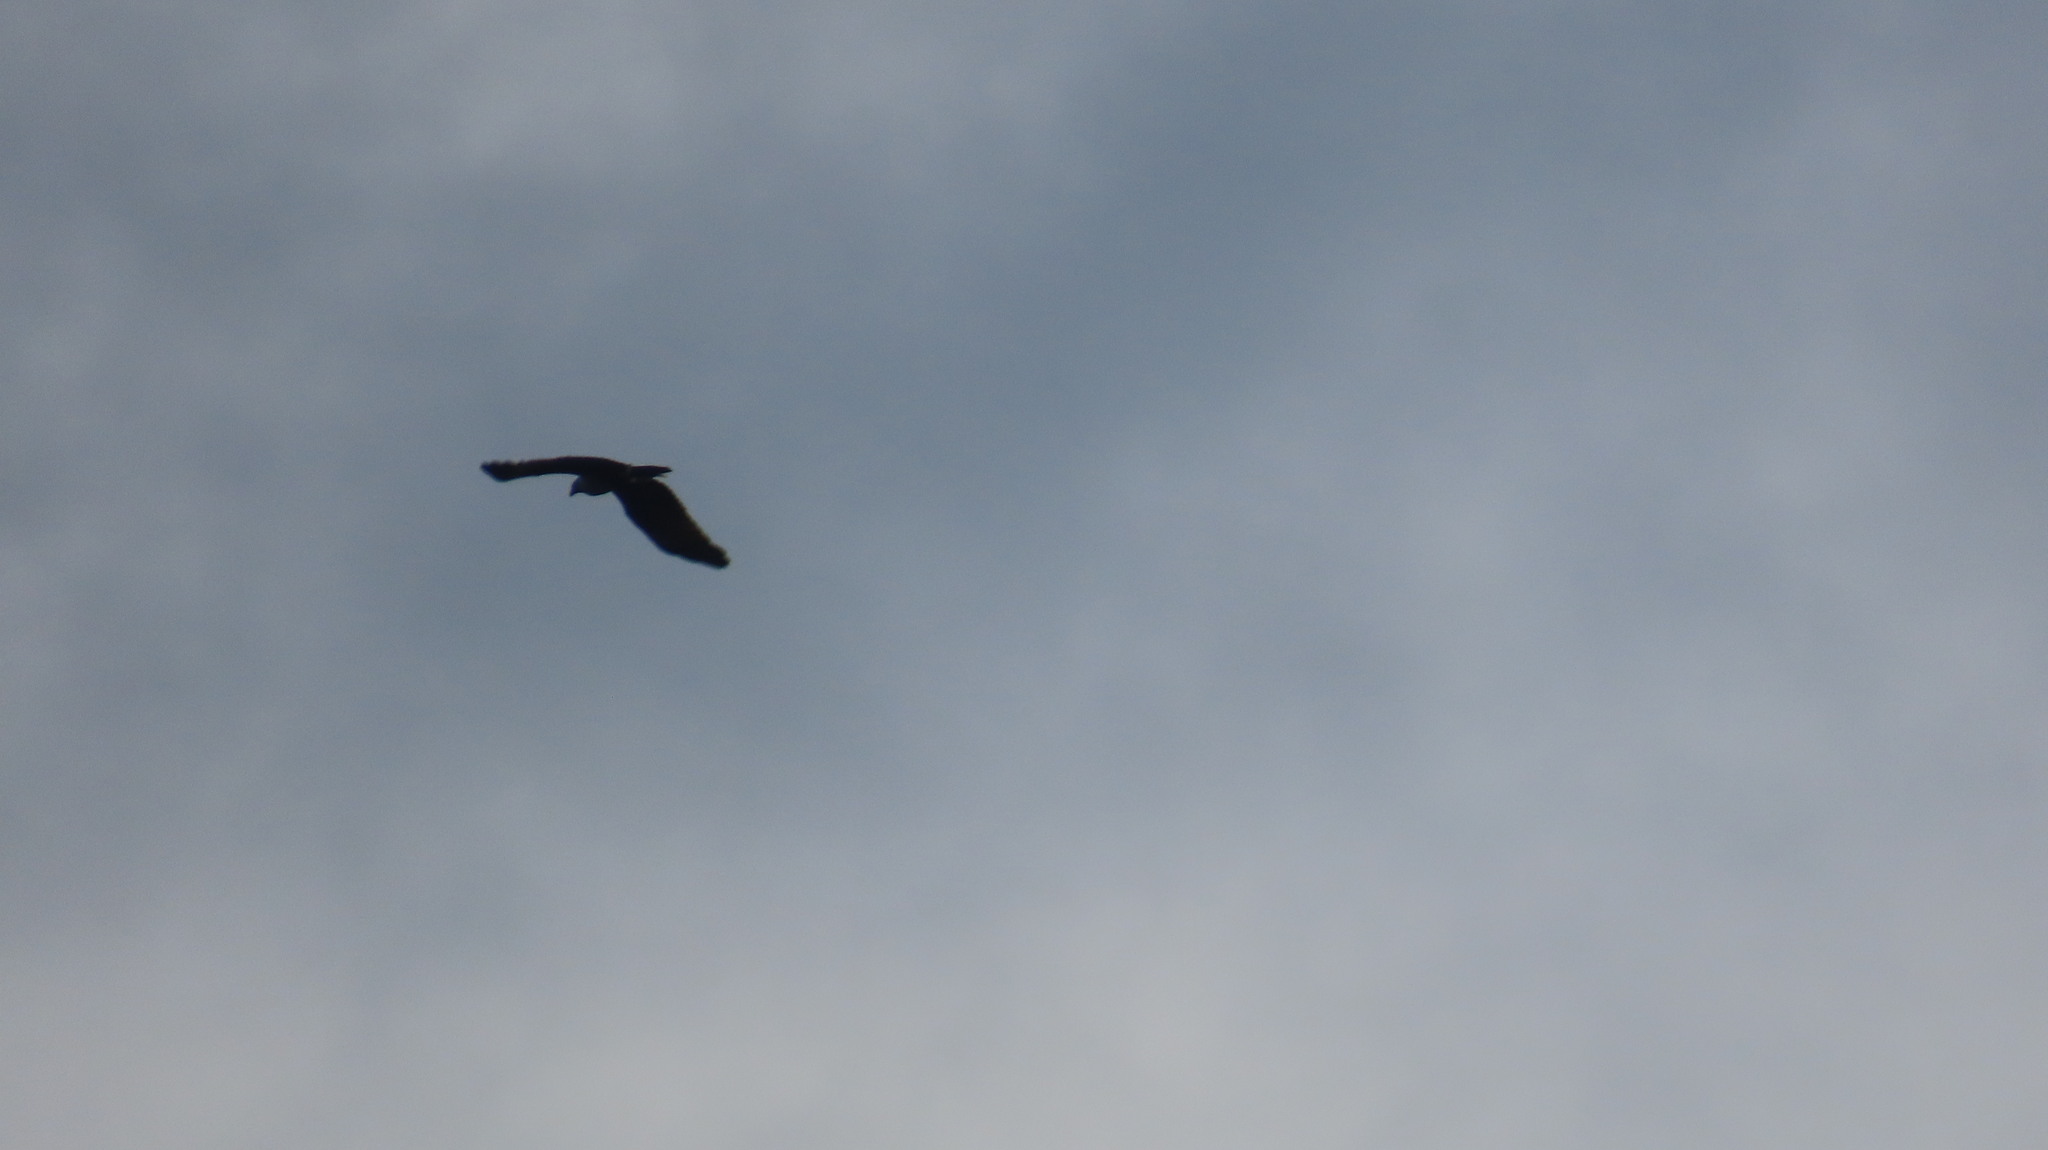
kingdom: Animalia
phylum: Chordata
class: Aves
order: Accipitriformes
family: Accipitridae
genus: Haliastur
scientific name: Haliastur indus
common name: Brahminy kite
